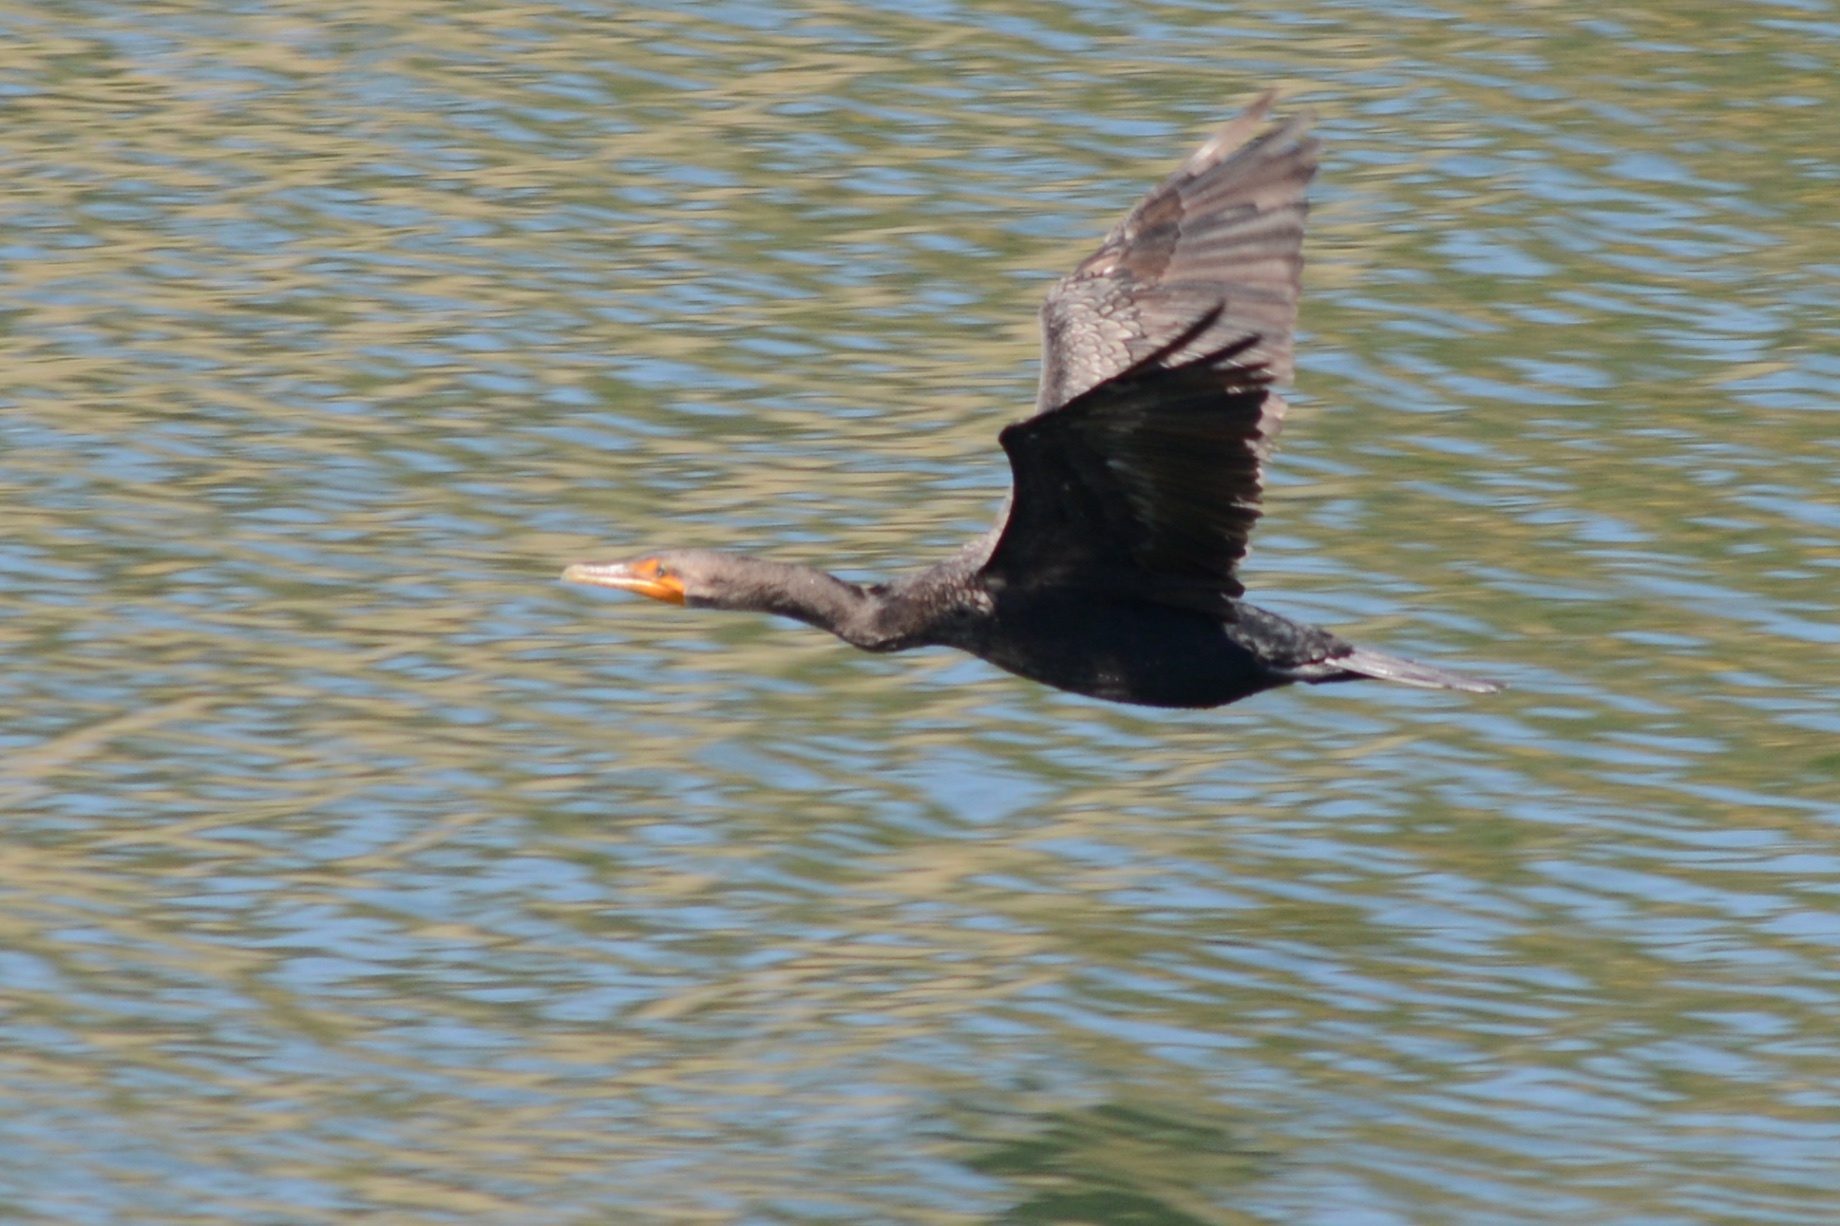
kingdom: Animalia
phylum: Chordata
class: Aves
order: Suliformes
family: Phalacrocoracidae
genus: Phalacrocorax
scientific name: Phalacrocorax auritus
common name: Double-crested cormorant
